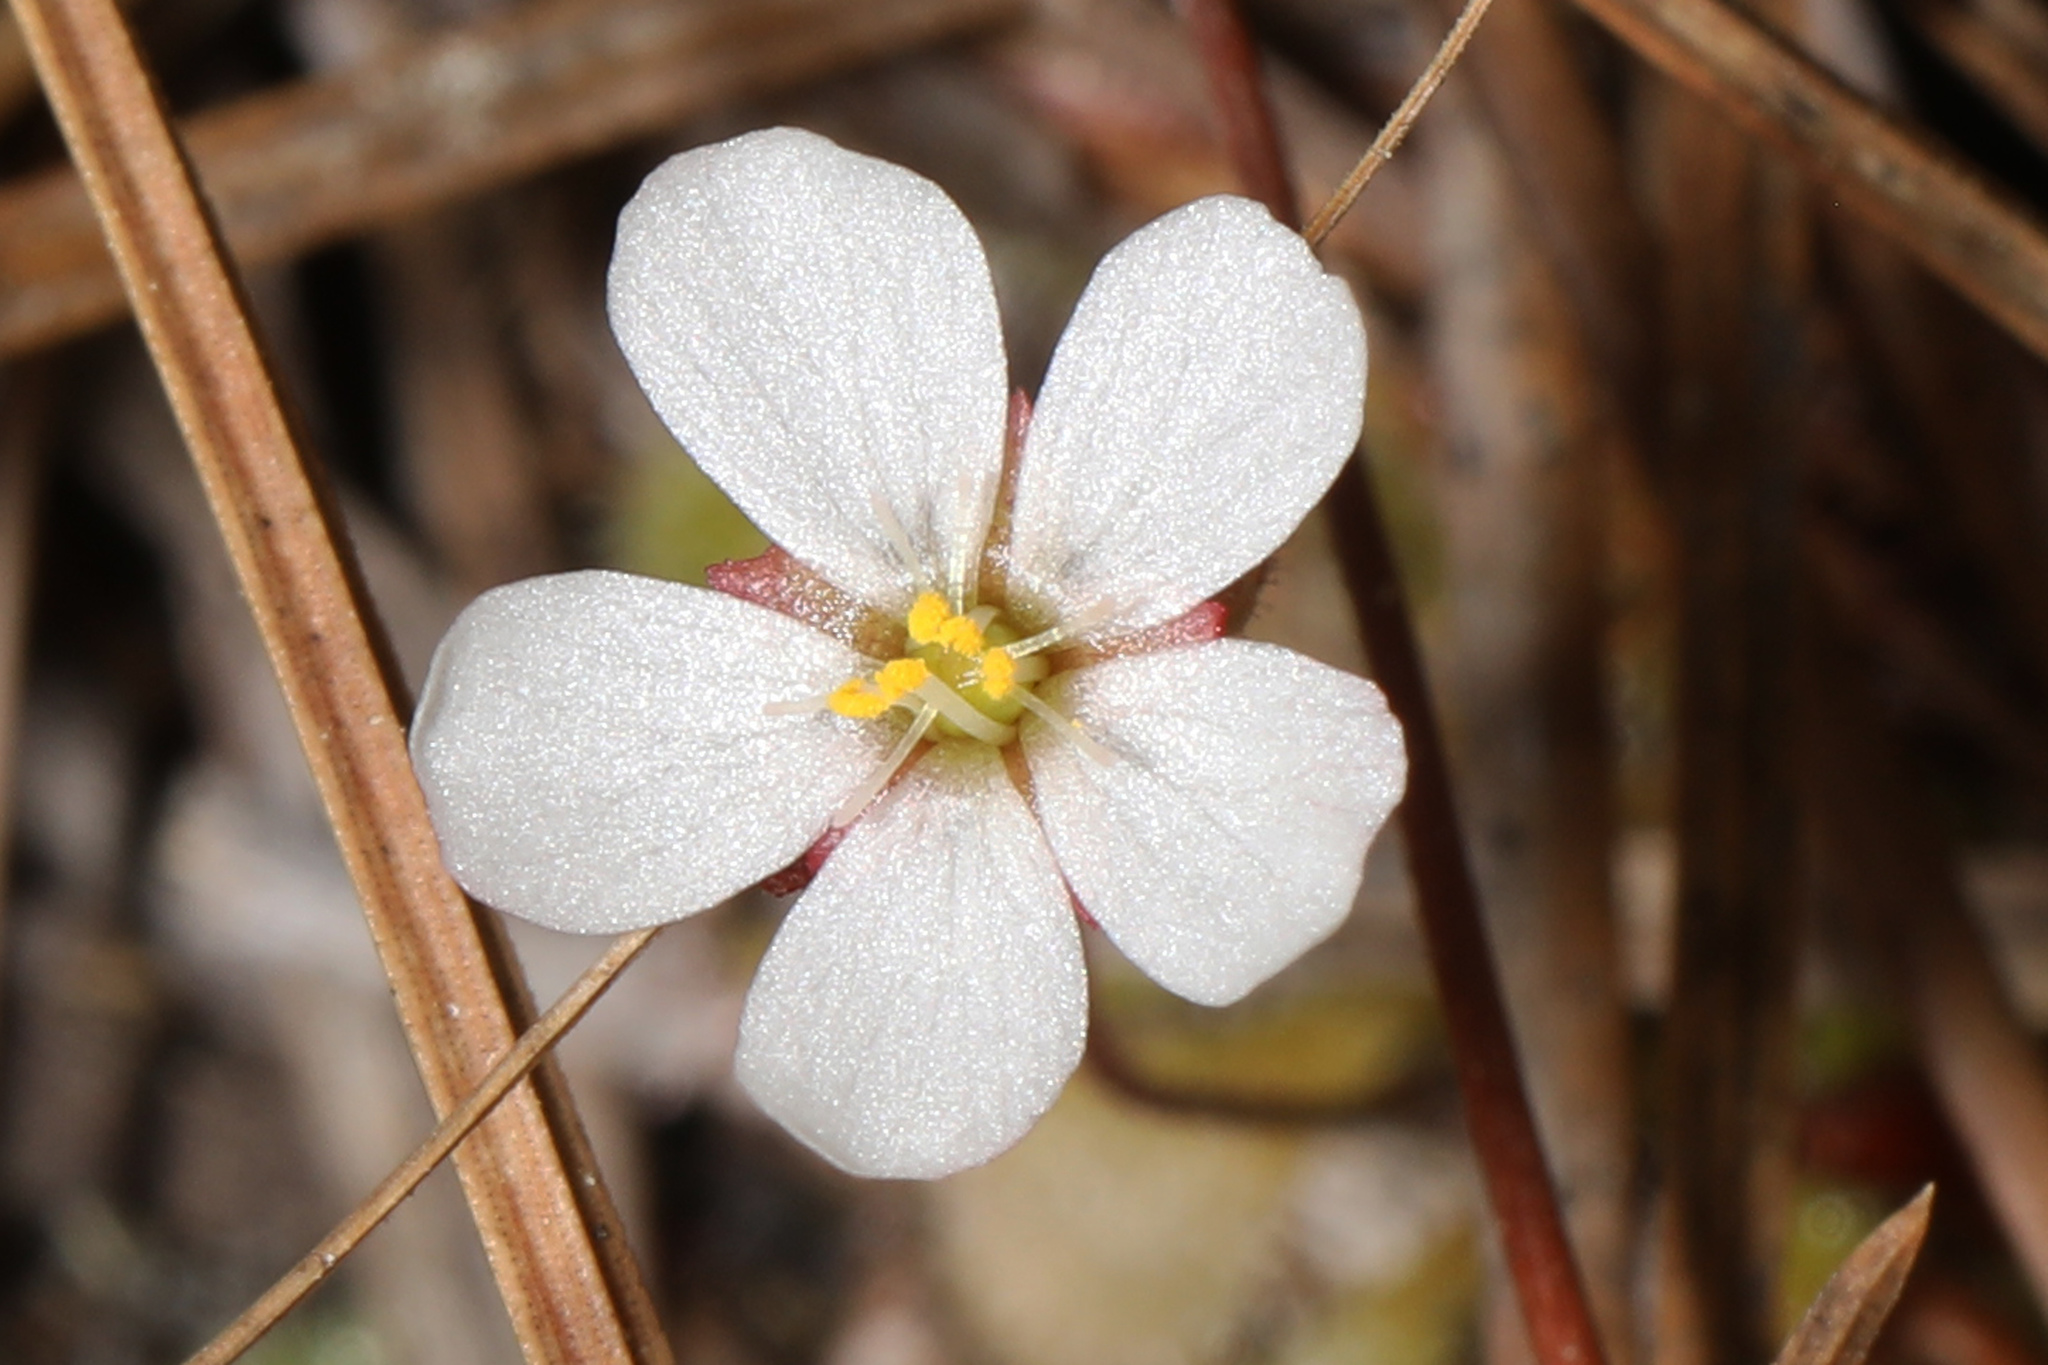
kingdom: Plantae
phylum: Tracheophyta
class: Magnoliopsida
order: Caryophyllales
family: Droseraceae
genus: Drosera
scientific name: Drosera capillaris
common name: Pink sundew
